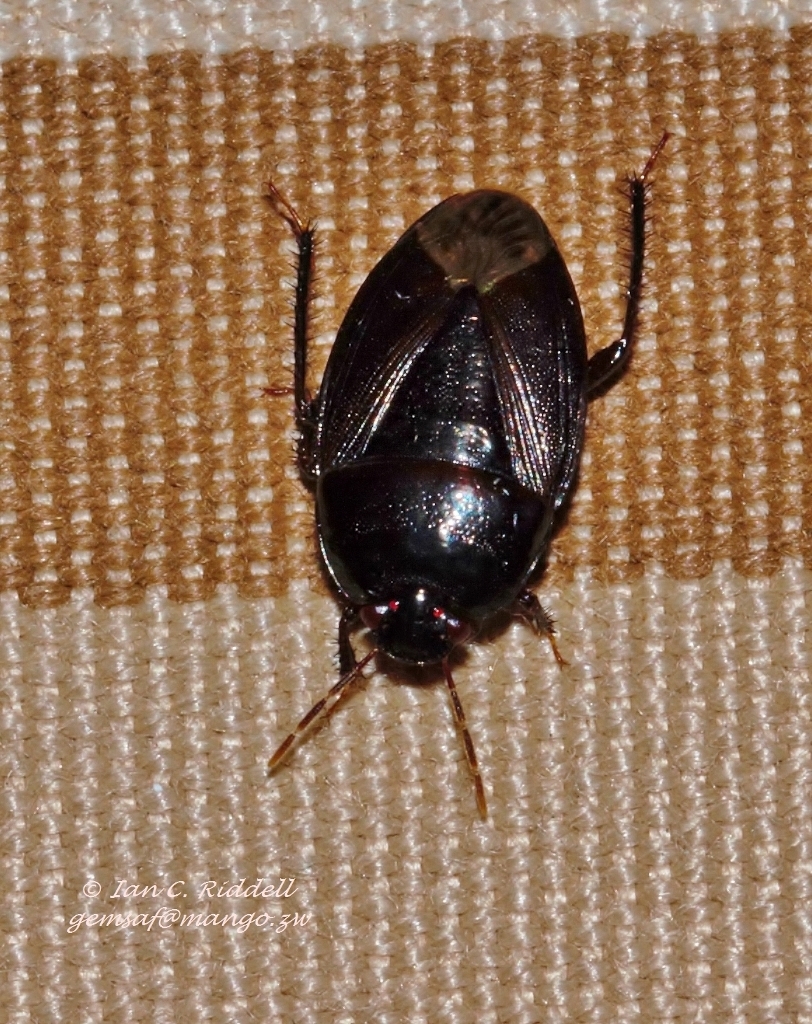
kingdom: Animalia
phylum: Arthropoda
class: Insecta
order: Hemiptera
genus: Geocnethus
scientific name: Geocnethus plagiatus
